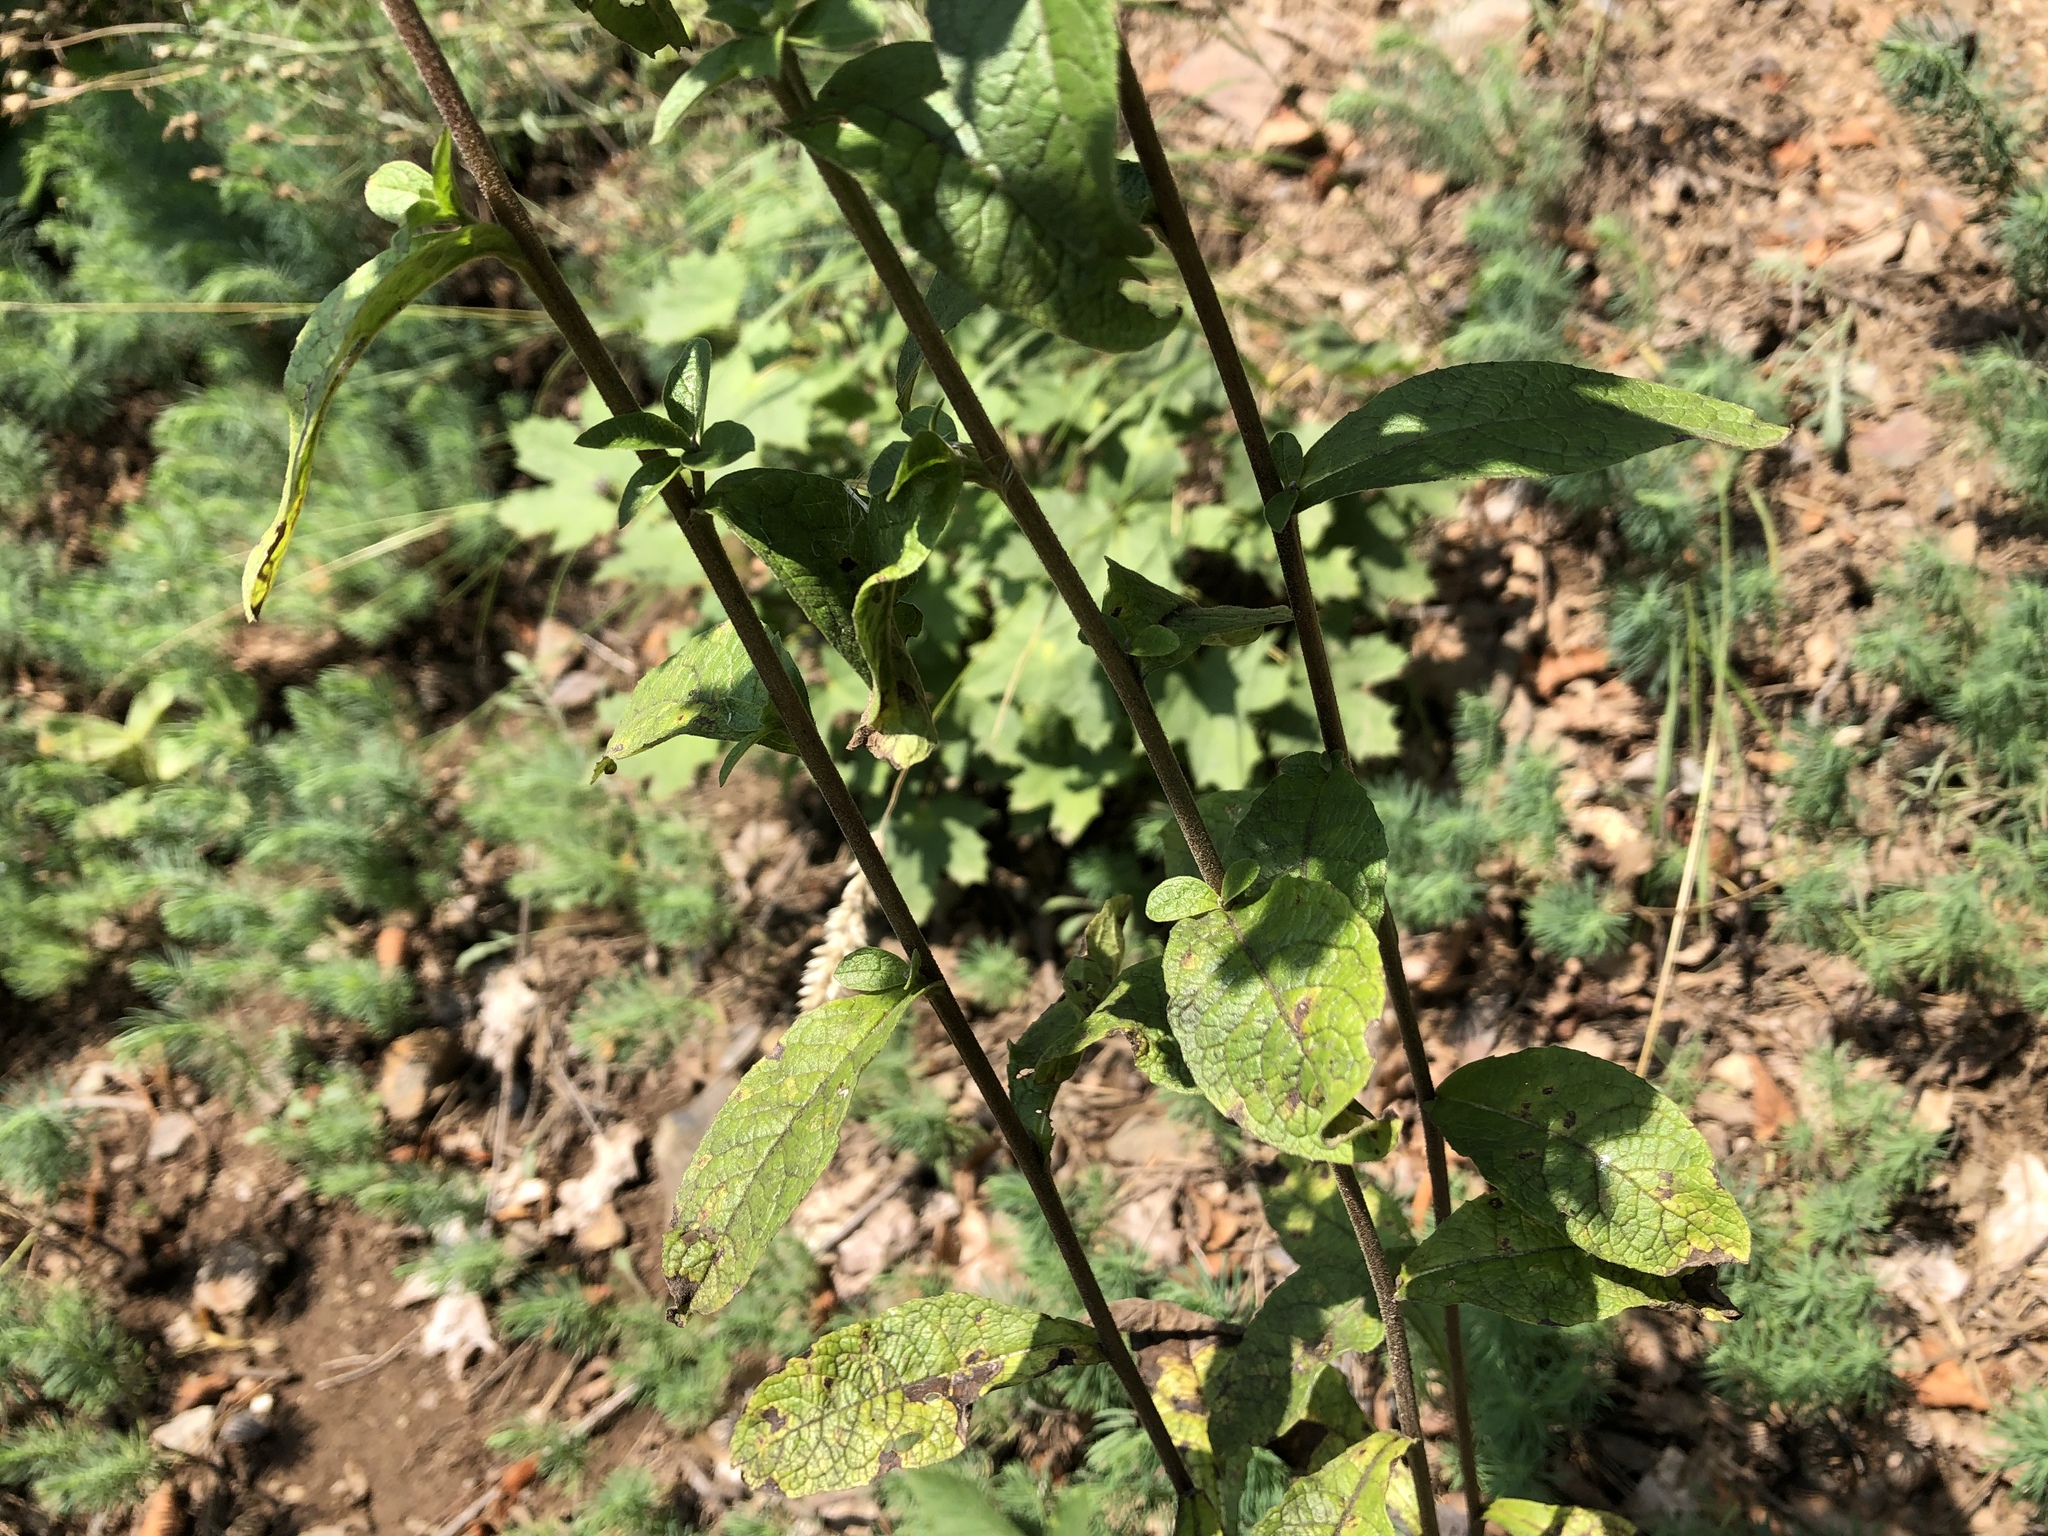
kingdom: Plantae
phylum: Tracheophyta
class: Magnoliopsida
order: Asterales
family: Asteraceae
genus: Pentanema
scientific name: Pentanema squarrosum
